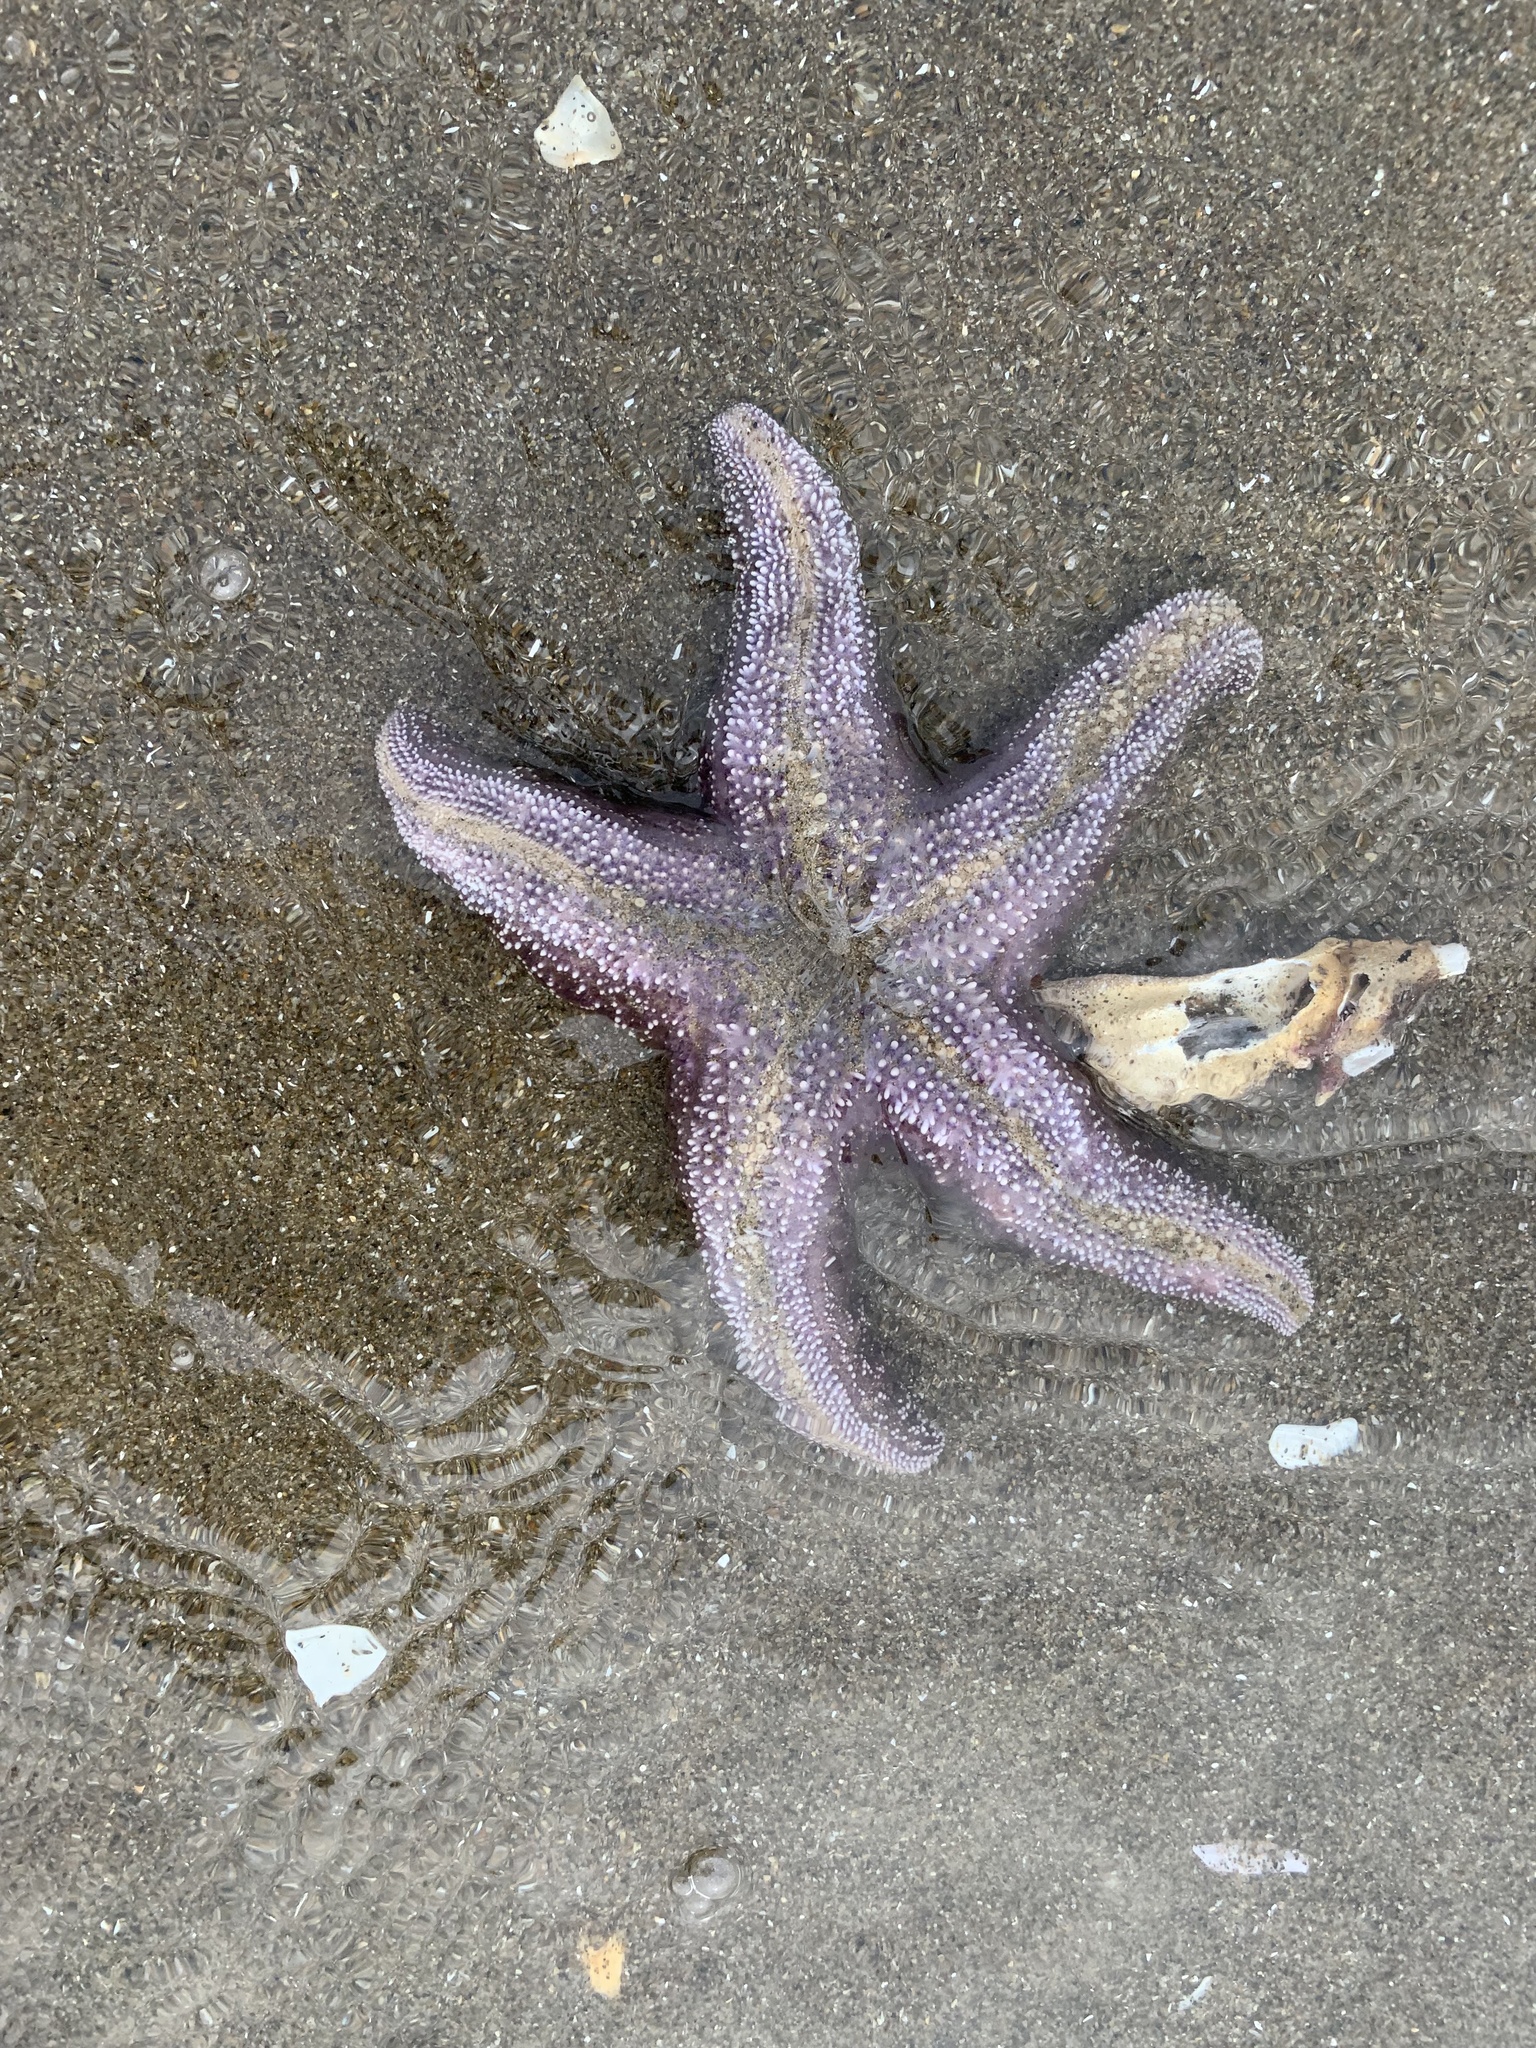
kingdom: Animalia
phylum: Echinodermata
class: Asteroidea
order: Forcipulatida
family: Asteriidae
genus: Pisaster
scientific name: Pisaster ochraceus
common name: Ochre stars
